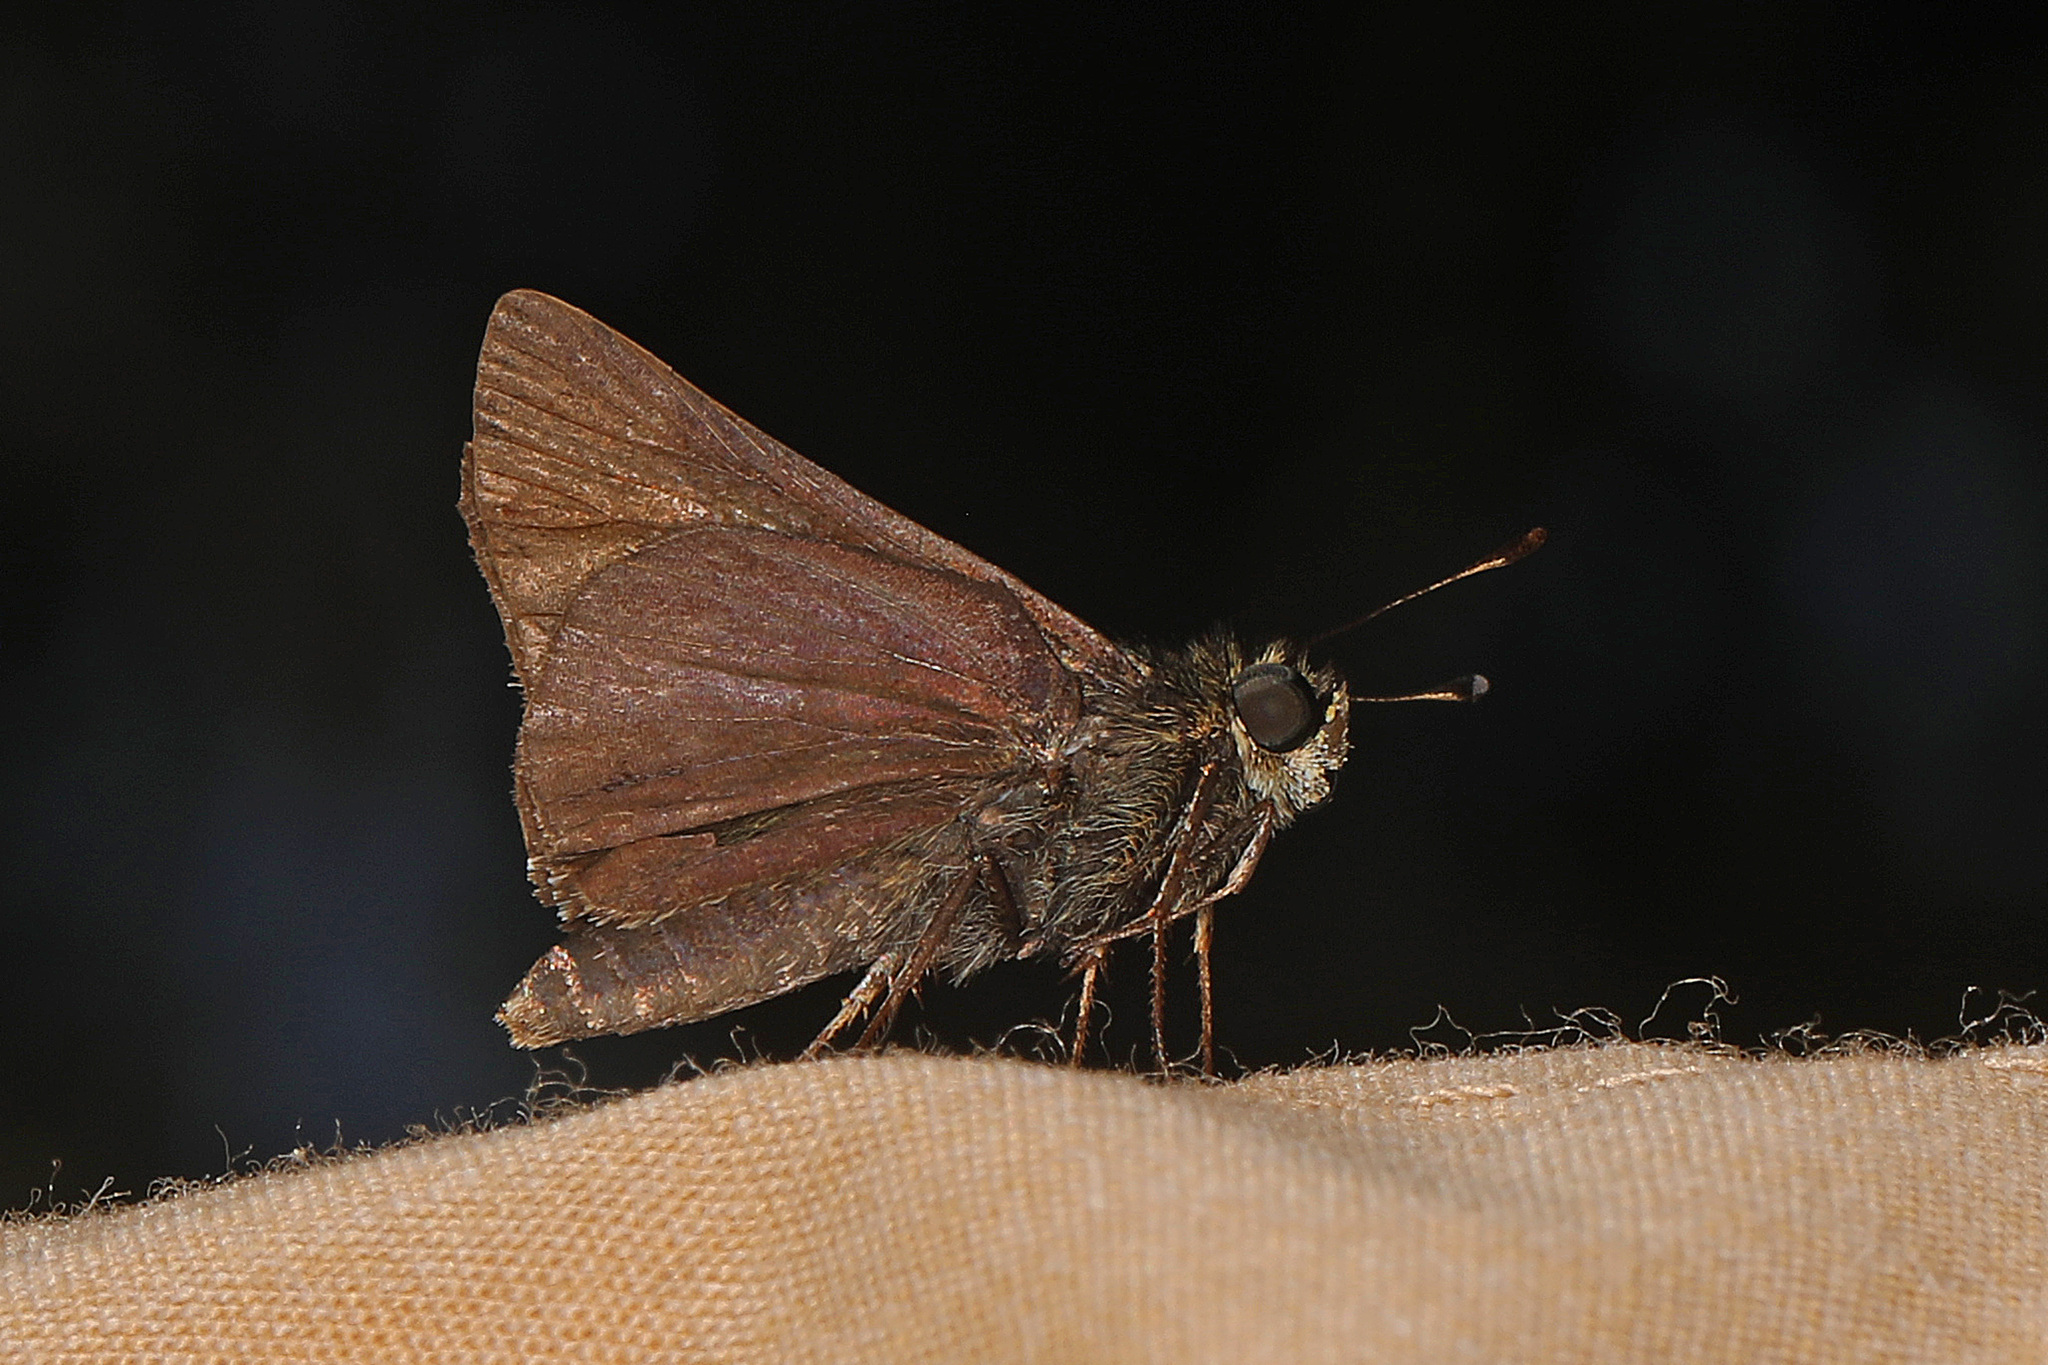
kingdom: Animalia
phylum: Arthropoda
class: Insecta
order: Lepidoptera
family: Hesperiidae
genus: Euphyes
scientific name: Euphyes vestris
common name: Dun skipper
